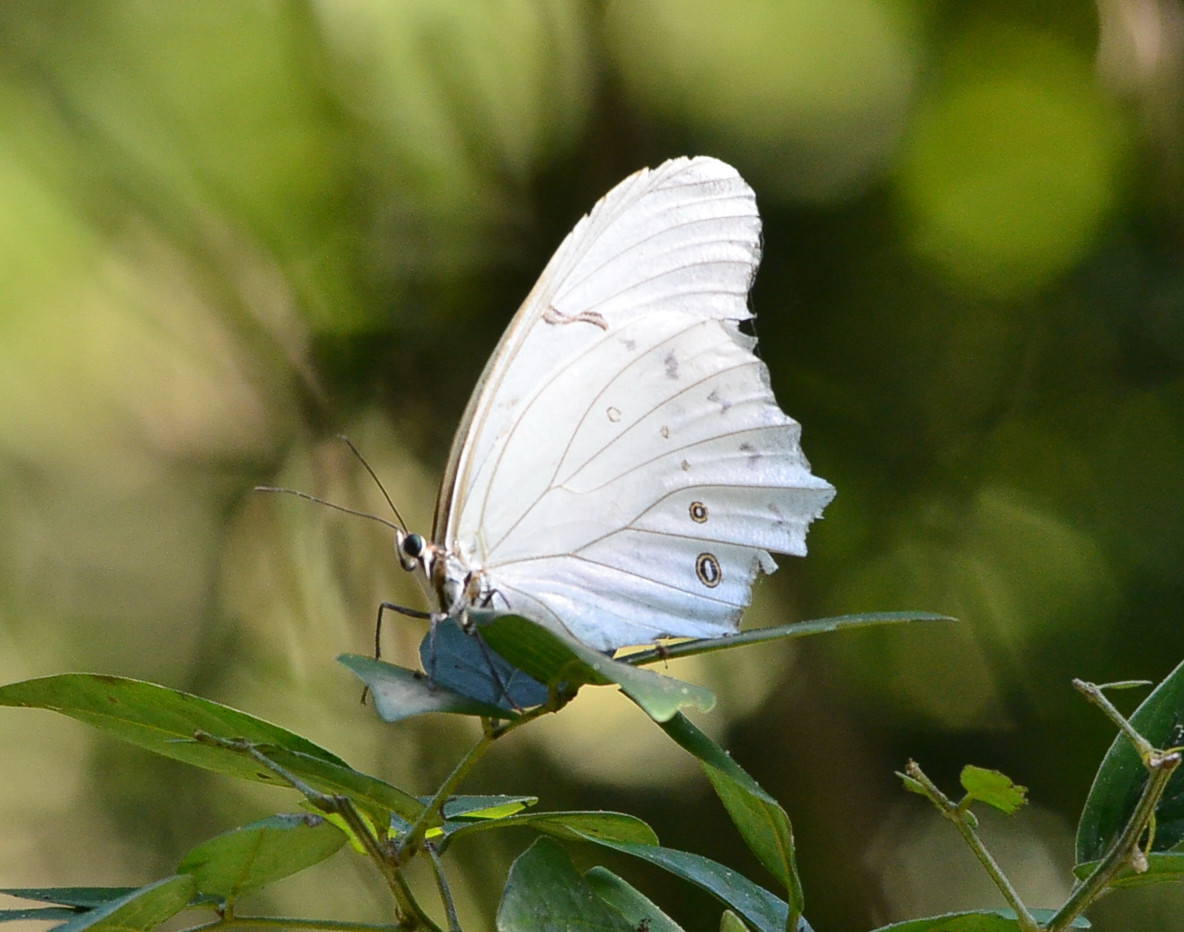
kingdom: Animalia
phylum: Arthropoda
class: Insecta
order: Lepidoptera
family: Nymphalidae
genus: Morpho
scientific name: Morpho polyphemus
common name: White morpho
